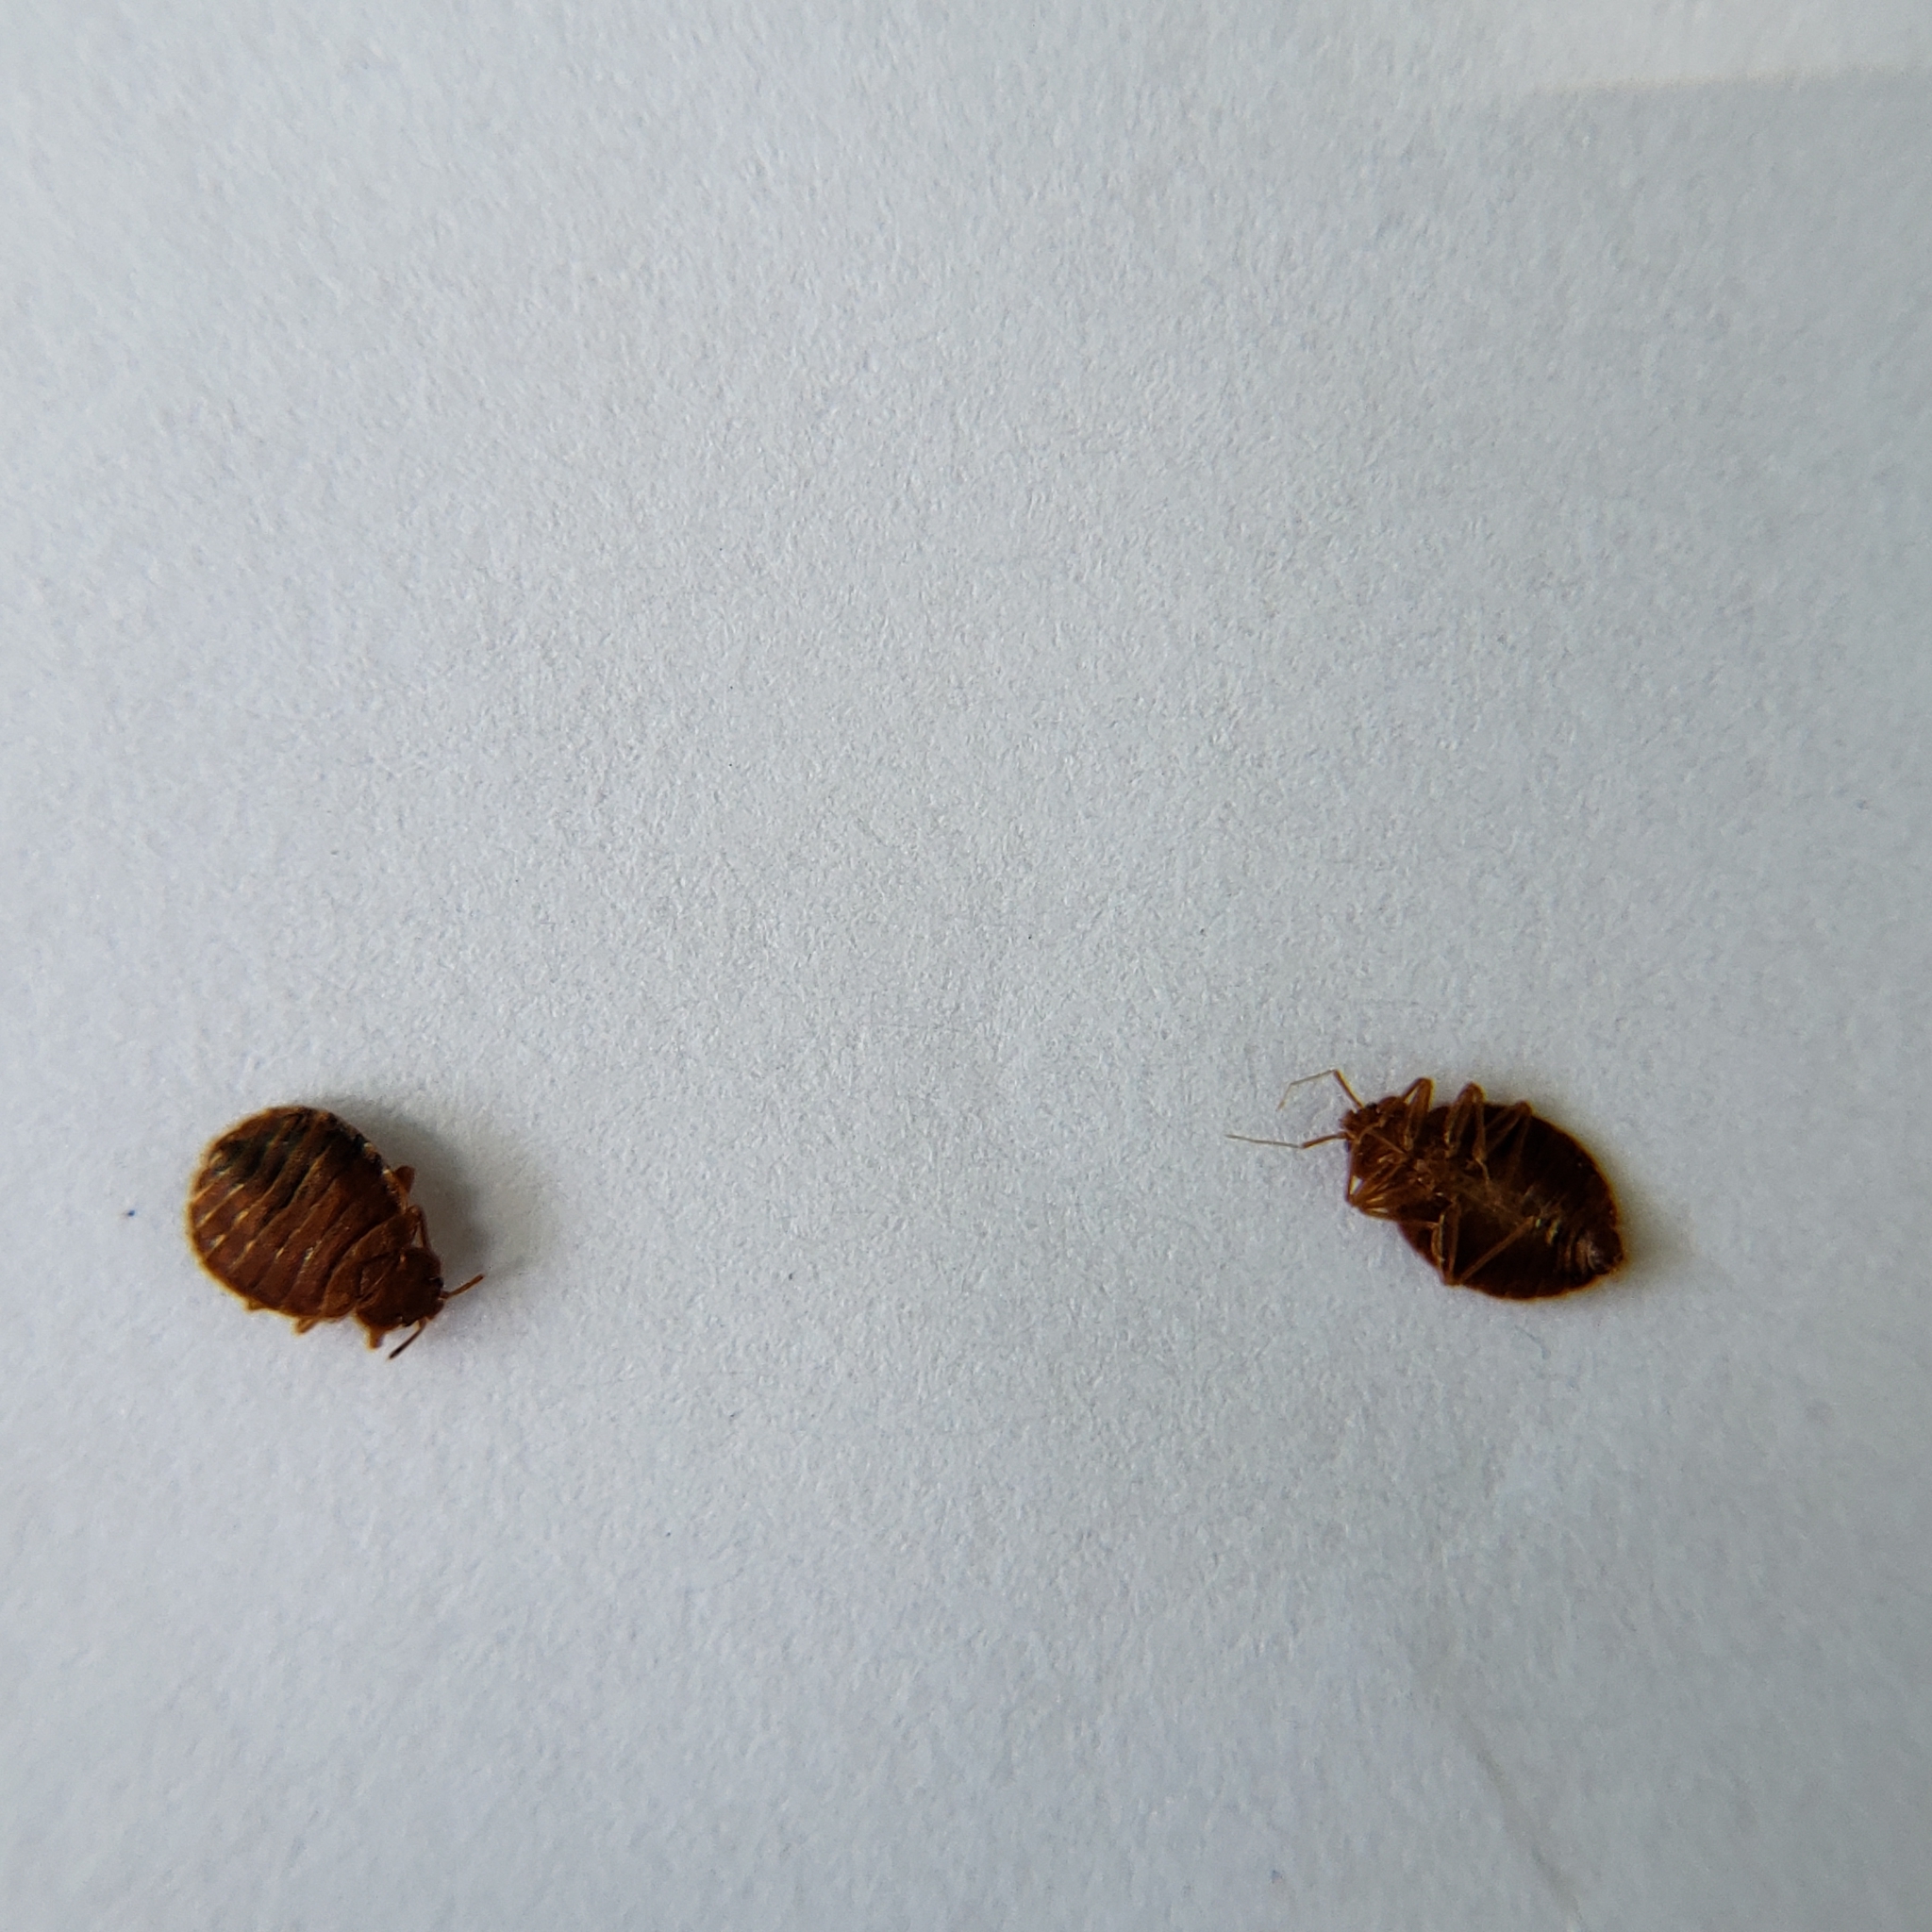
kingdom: Animalia
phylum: Arthropoda
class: Insecta
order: Hemiptera
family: Cimicidae
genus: Cimex
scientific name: Cimex lectularius
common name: Bed bug
